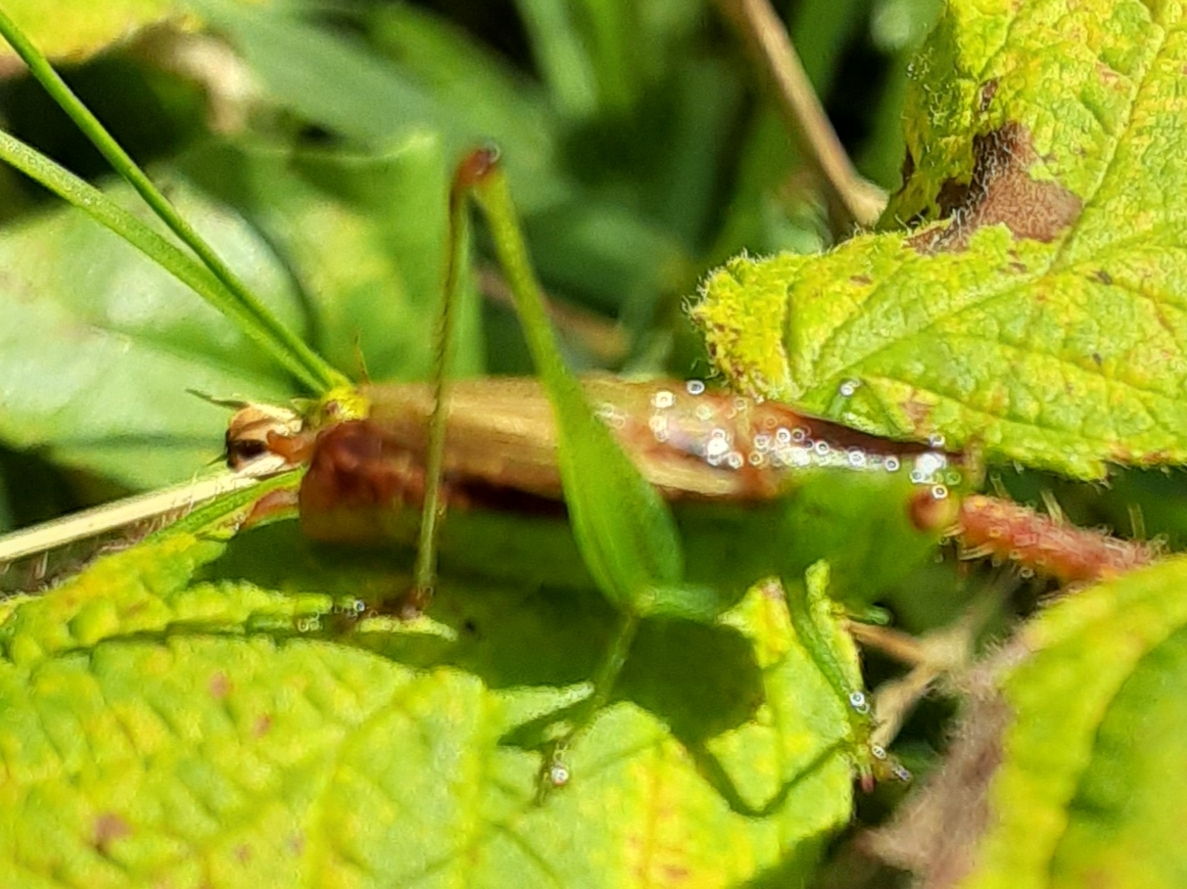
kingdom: Animalia
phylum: Arthropoda
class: Insecta
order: Orthoptera
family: Tettigoniidae
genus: Conocephalus
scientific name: Conocephalus brevipennis
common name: Short-winged meadow katydid
